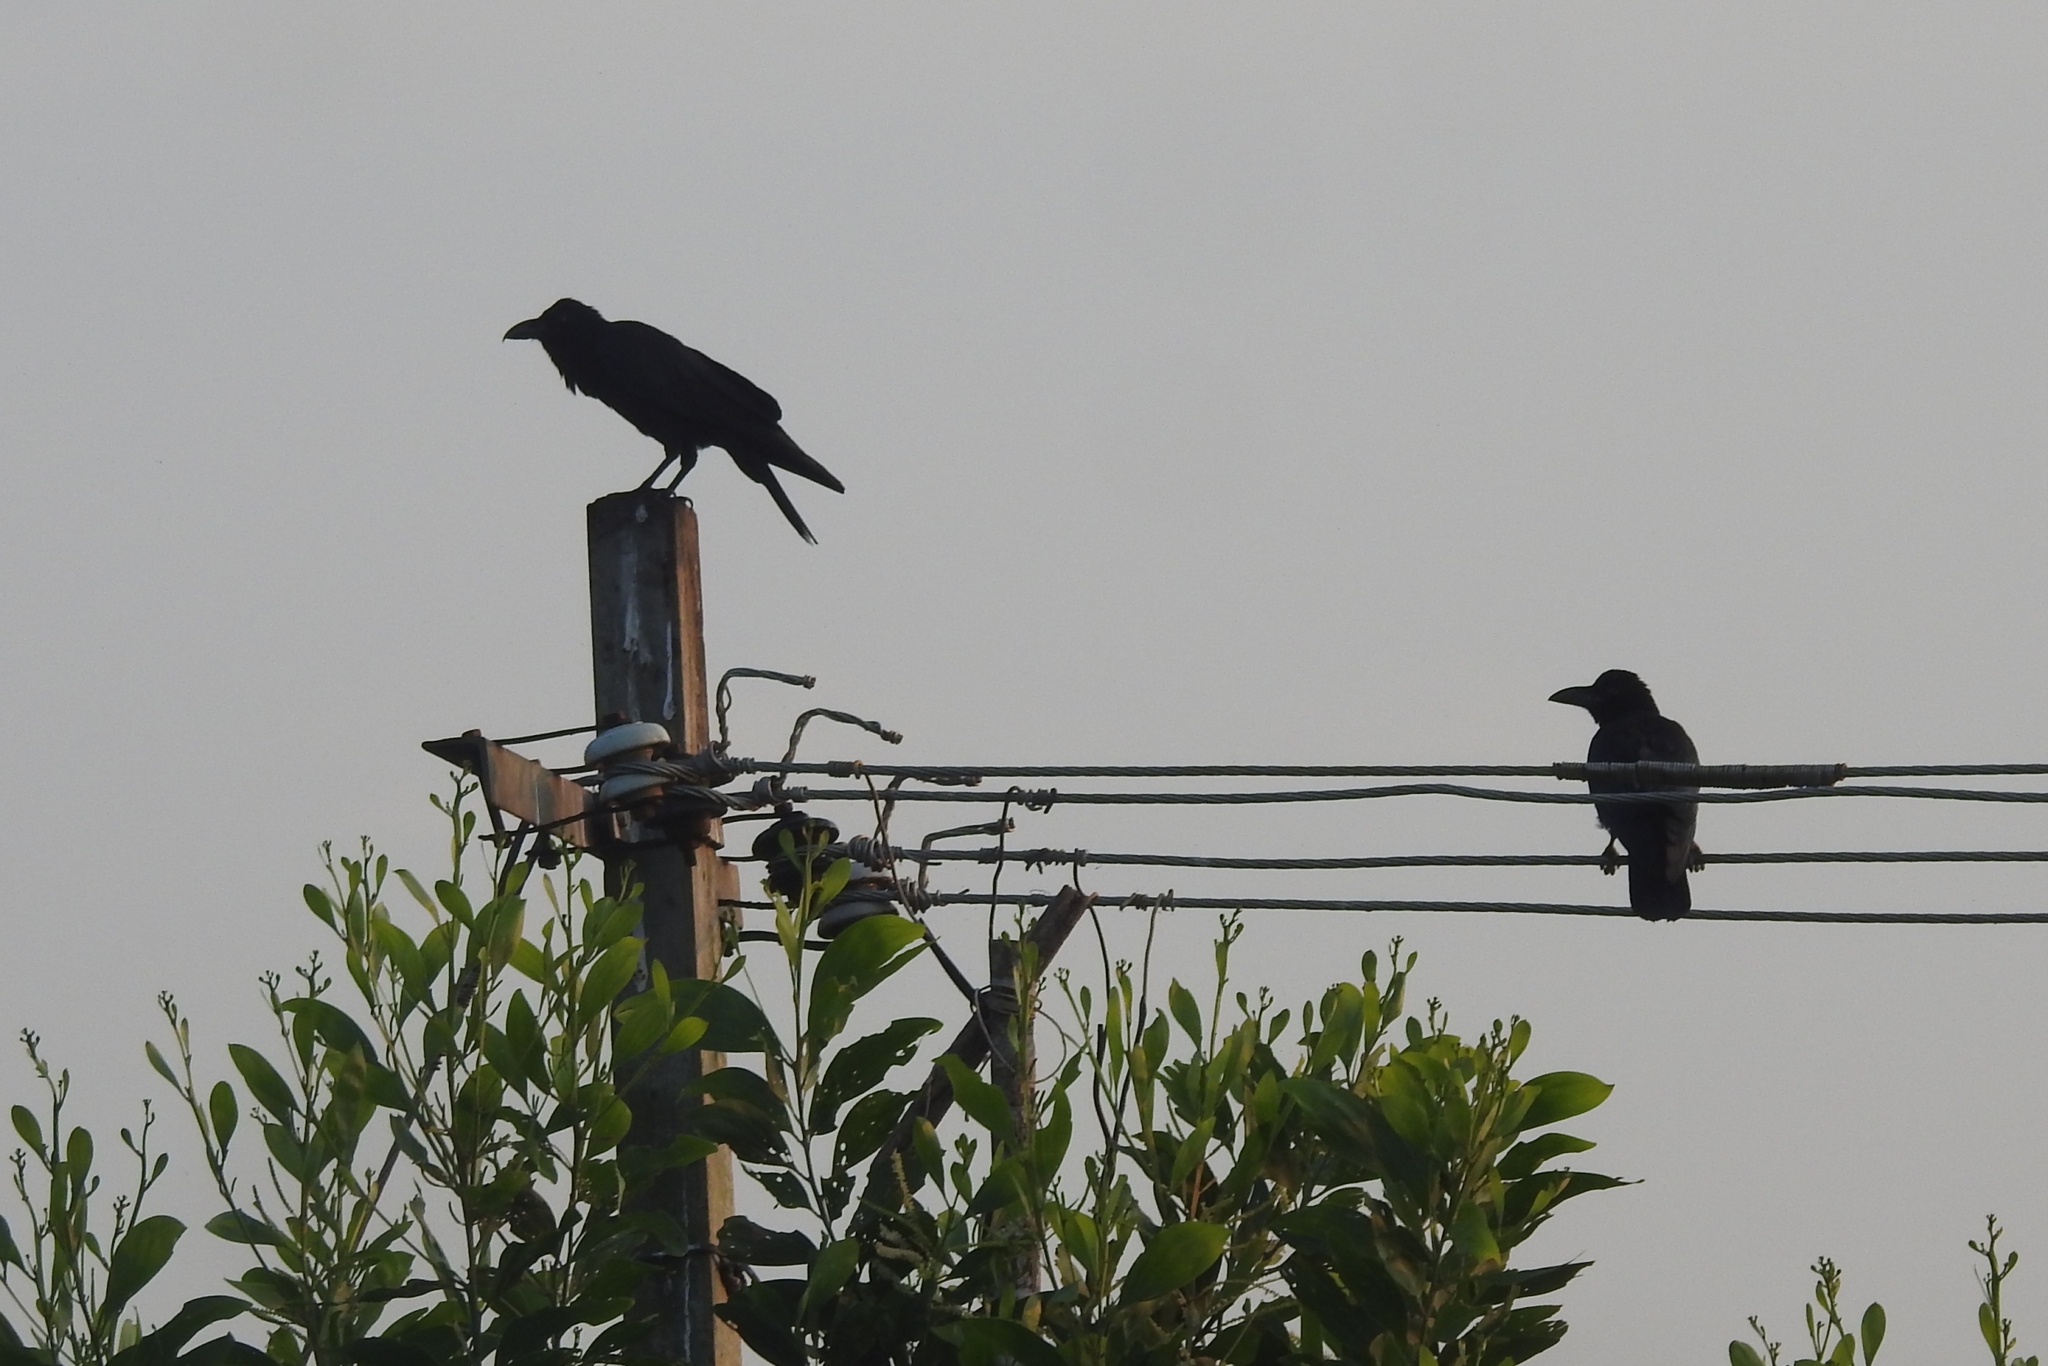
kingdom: Animalia
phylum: Chordata
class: Aves
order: Passeriformes
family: Corvidae
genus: Corvus
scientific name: Corvus macrorhynchos
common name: Large-billed crow
